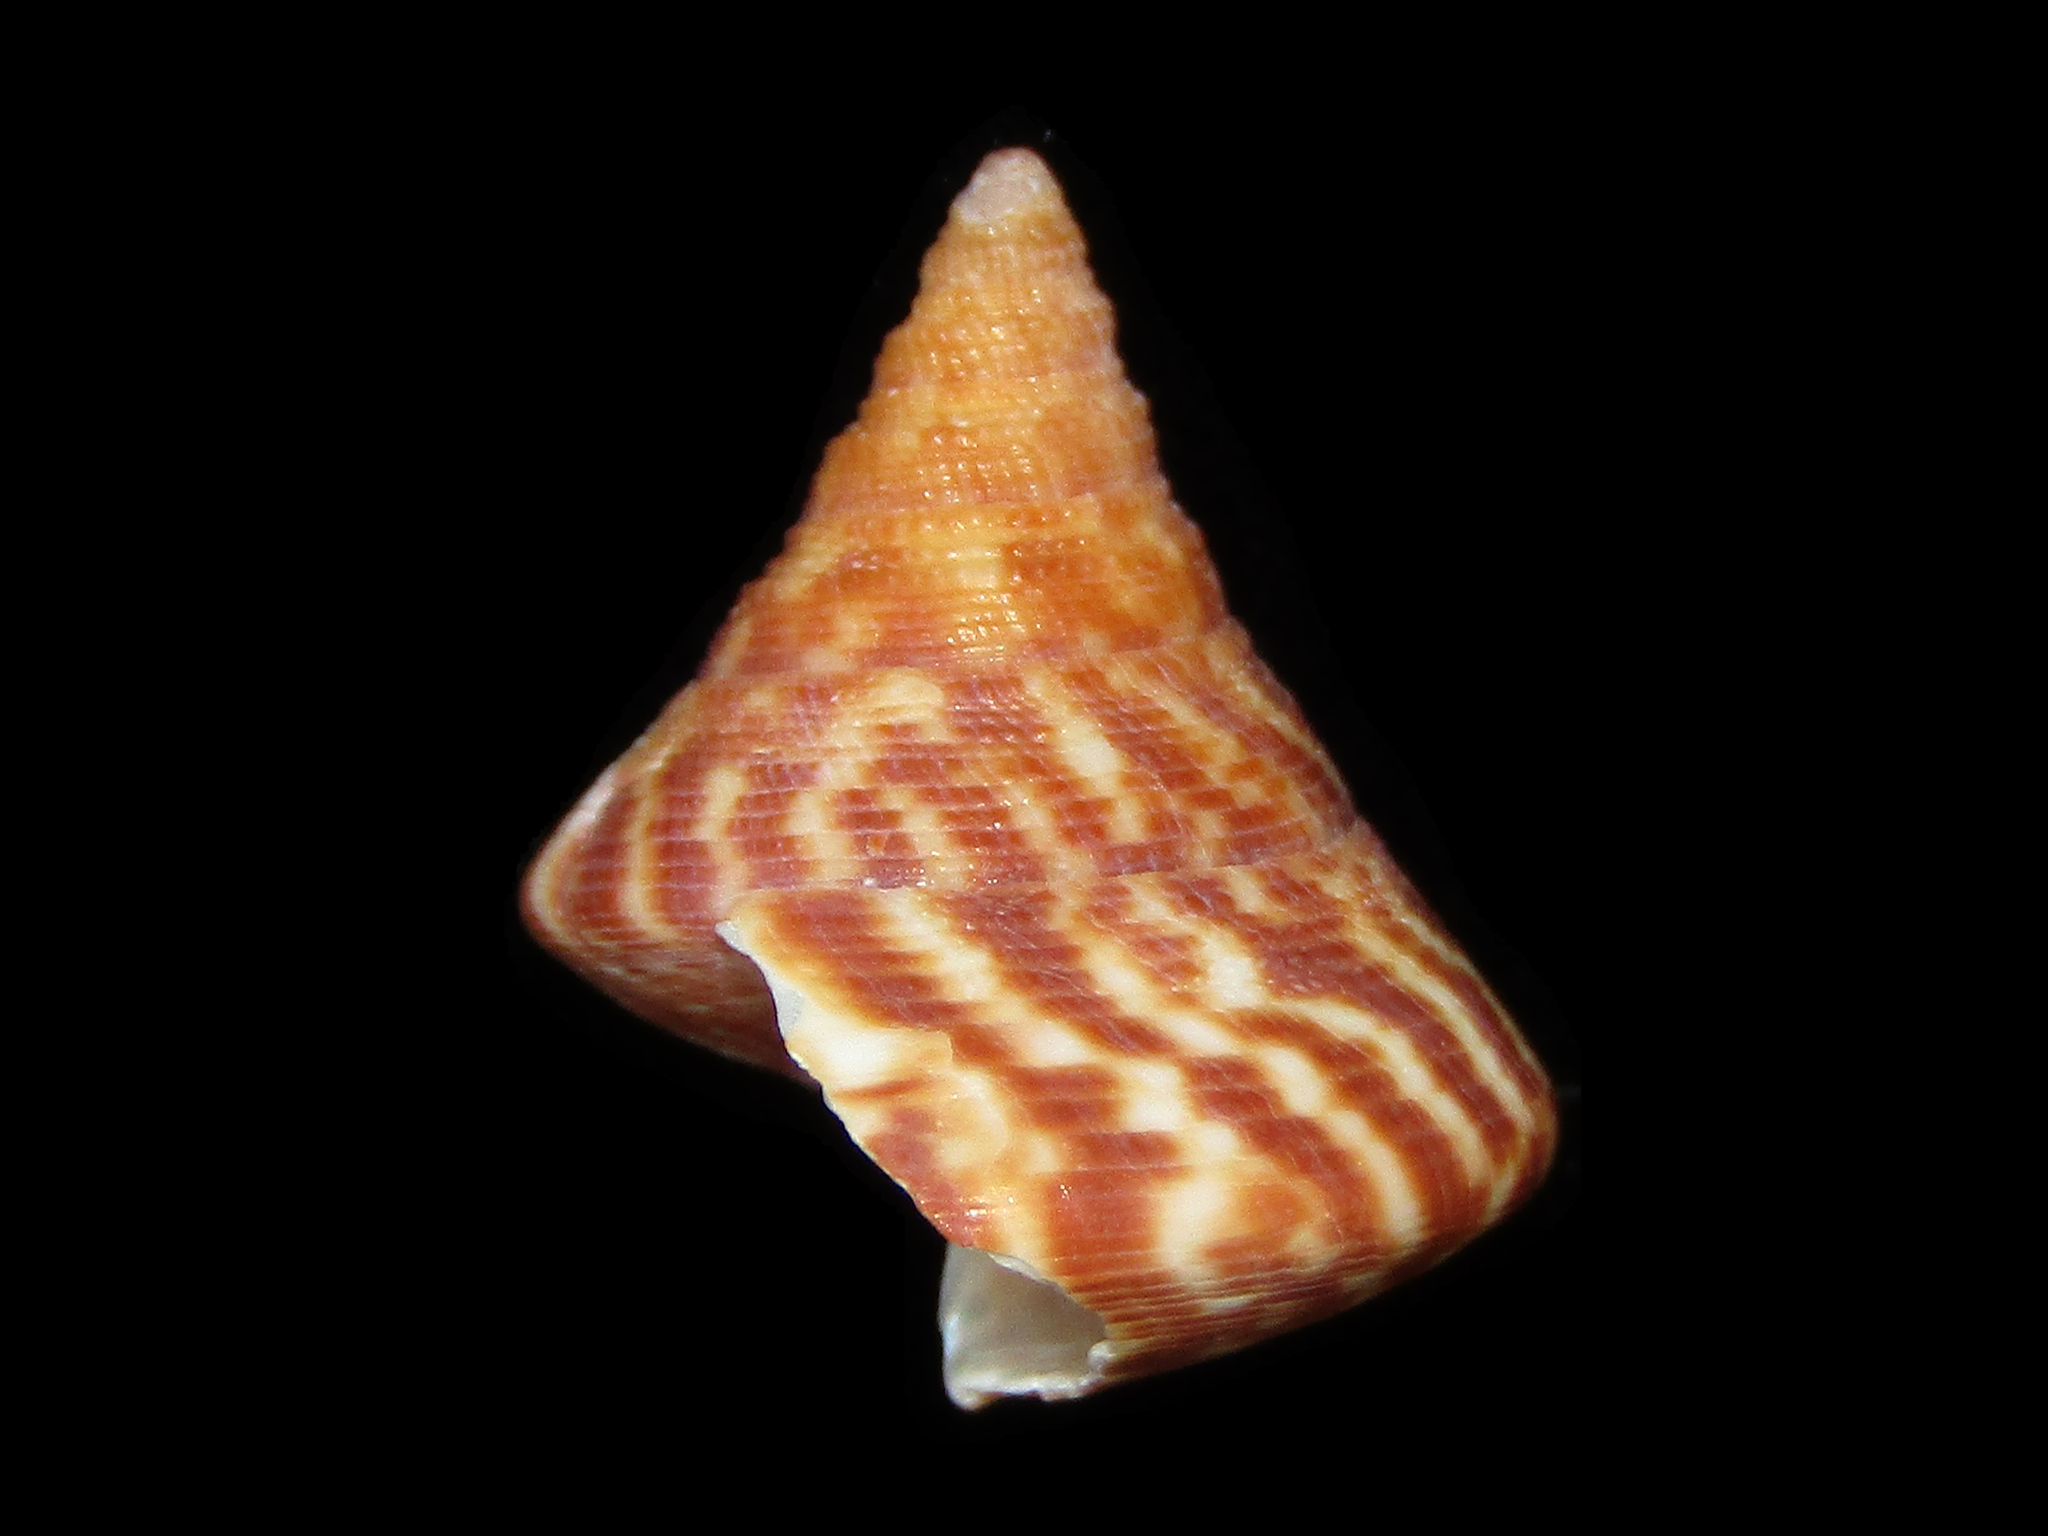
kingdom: Animalia
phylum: Mollusca
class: Gastropoda
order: Trochida
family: Calliostomatidae
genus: Maurea
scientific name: Maurea tigris
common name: Tiger maurea
